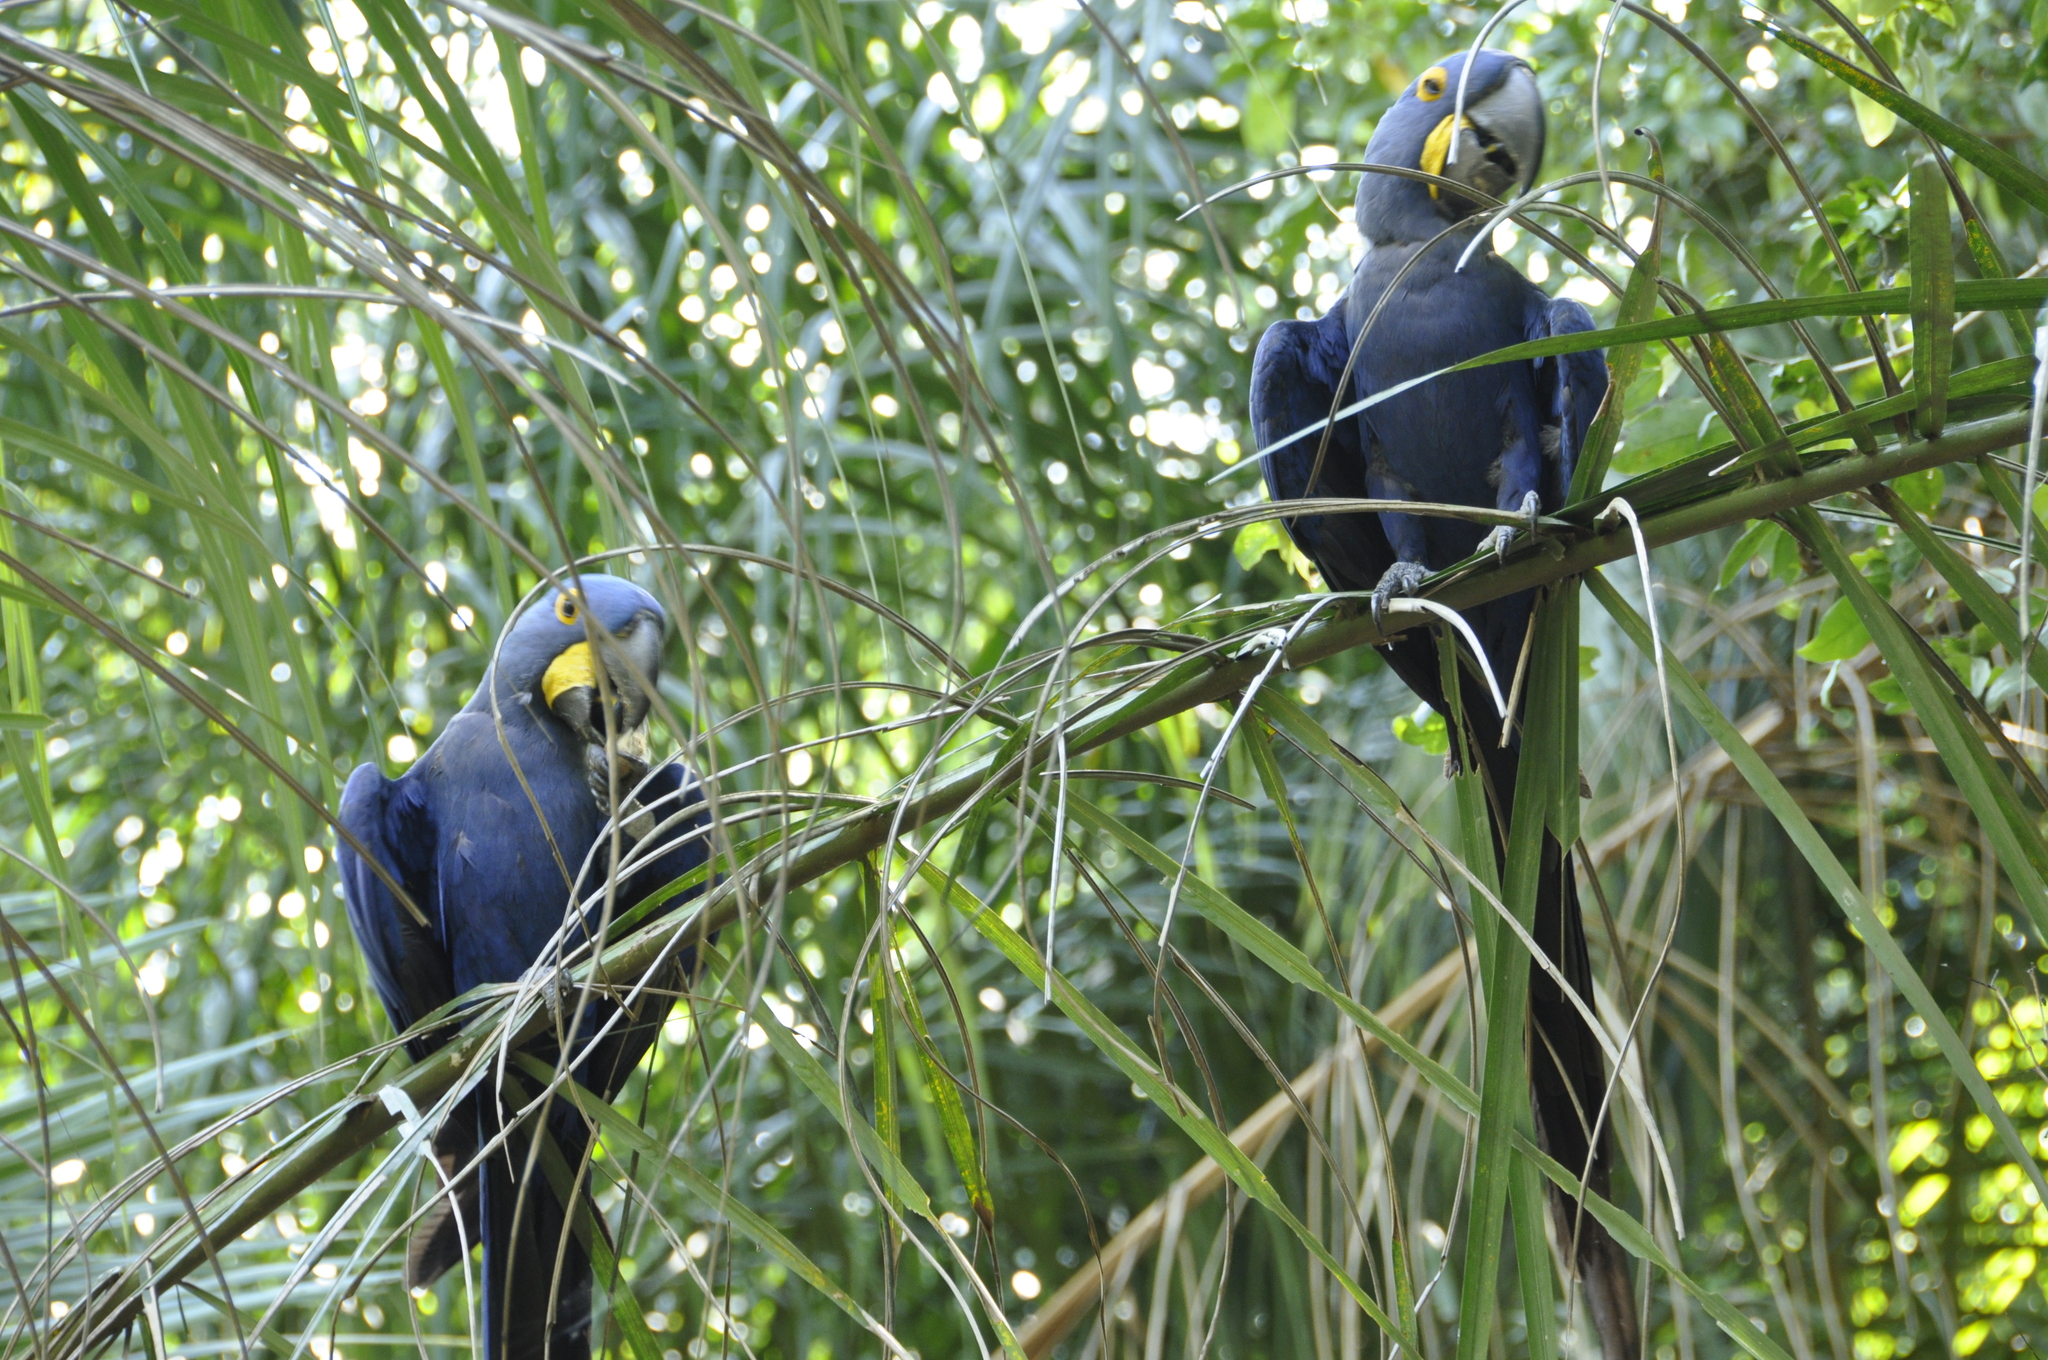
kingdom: Animalia
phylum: Chordata
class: Aves
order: Psittaciformes
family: Psittacidae
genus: Anodorhynchus
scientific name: Anodorhynchus hyacinthinus
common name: Hyacinth macaw
